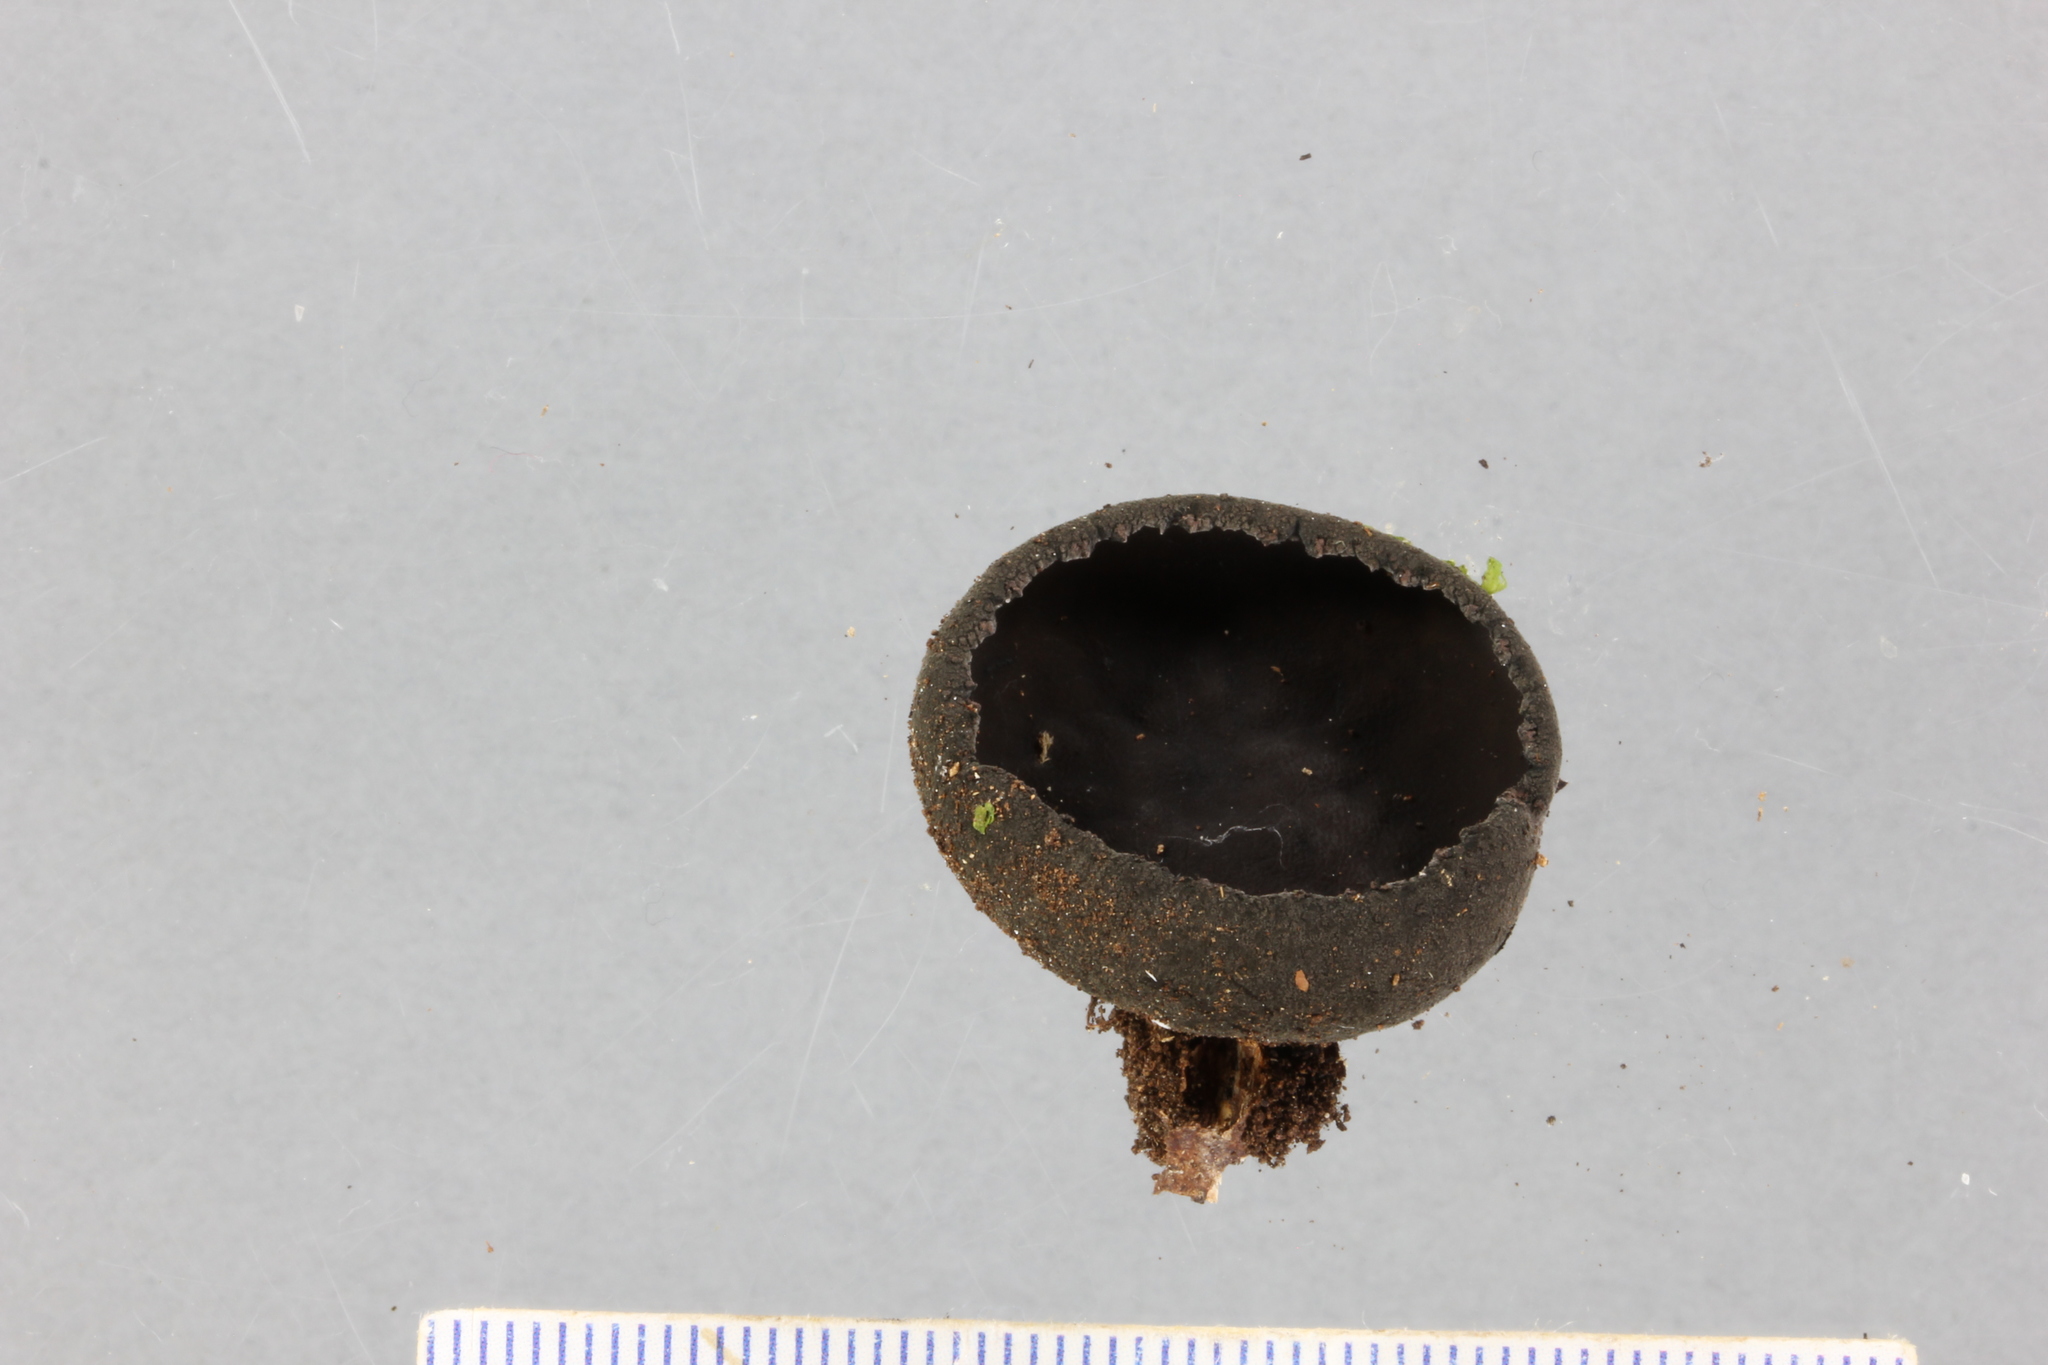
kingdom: Fungi
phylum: Ascomycota
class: Pezizomycetes
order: Pezizales
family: Sarcosomataceae
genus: Plectania
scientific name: Plectania campylospora
